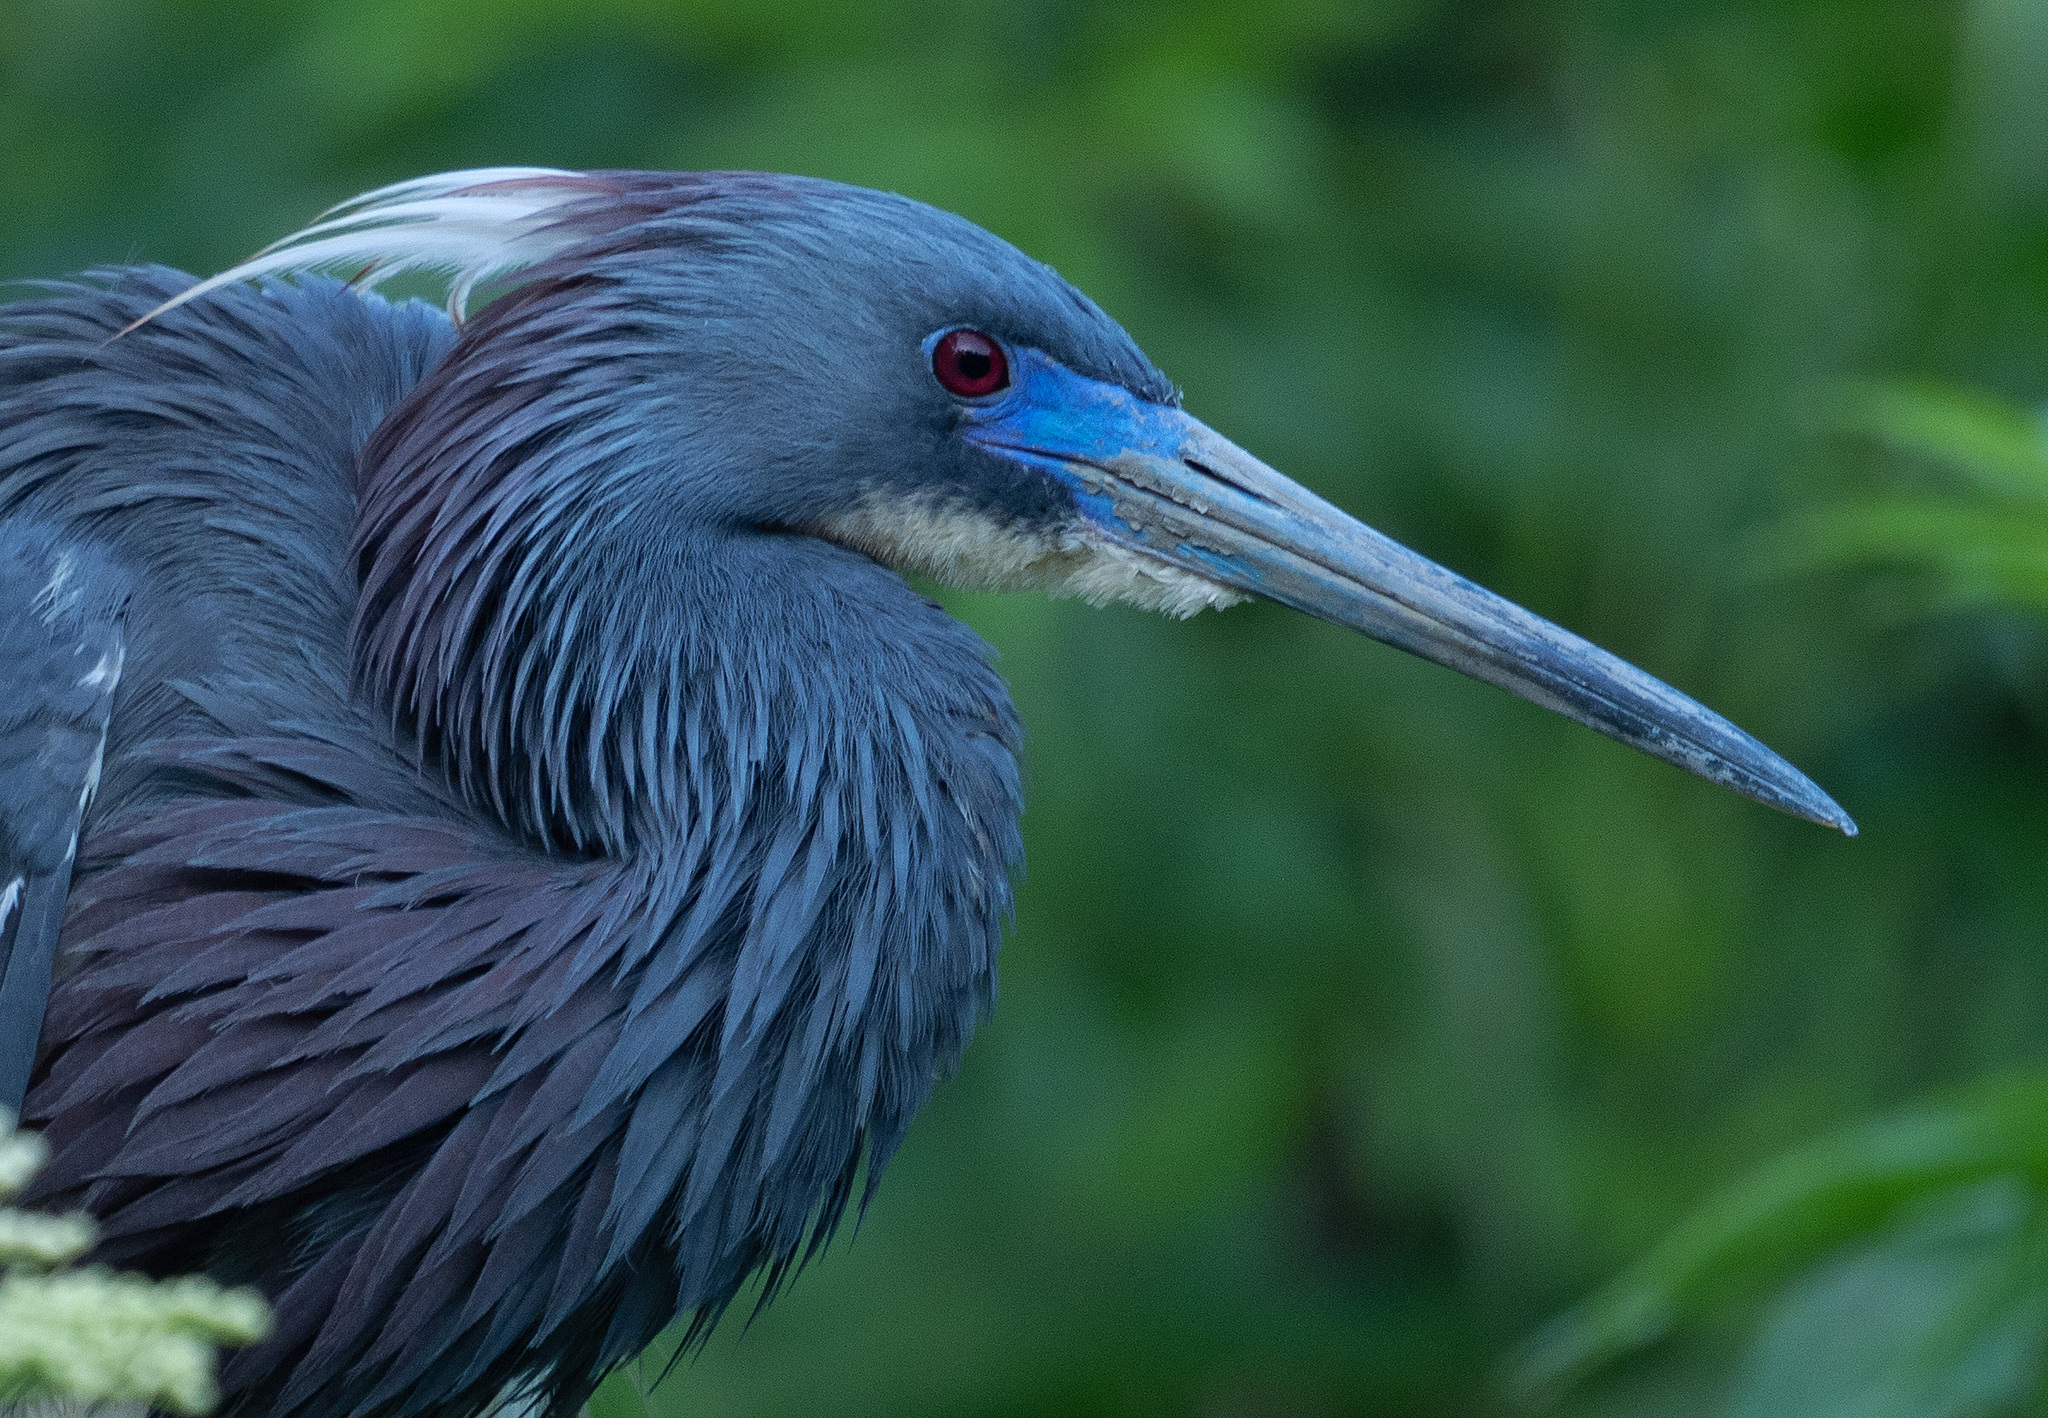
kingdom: Animalia
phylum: Chordata
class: Aves
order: Pelecaniformes
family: Ardeidae
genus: Egretta
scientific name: Egretta tricolor
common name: Tricolored heron
